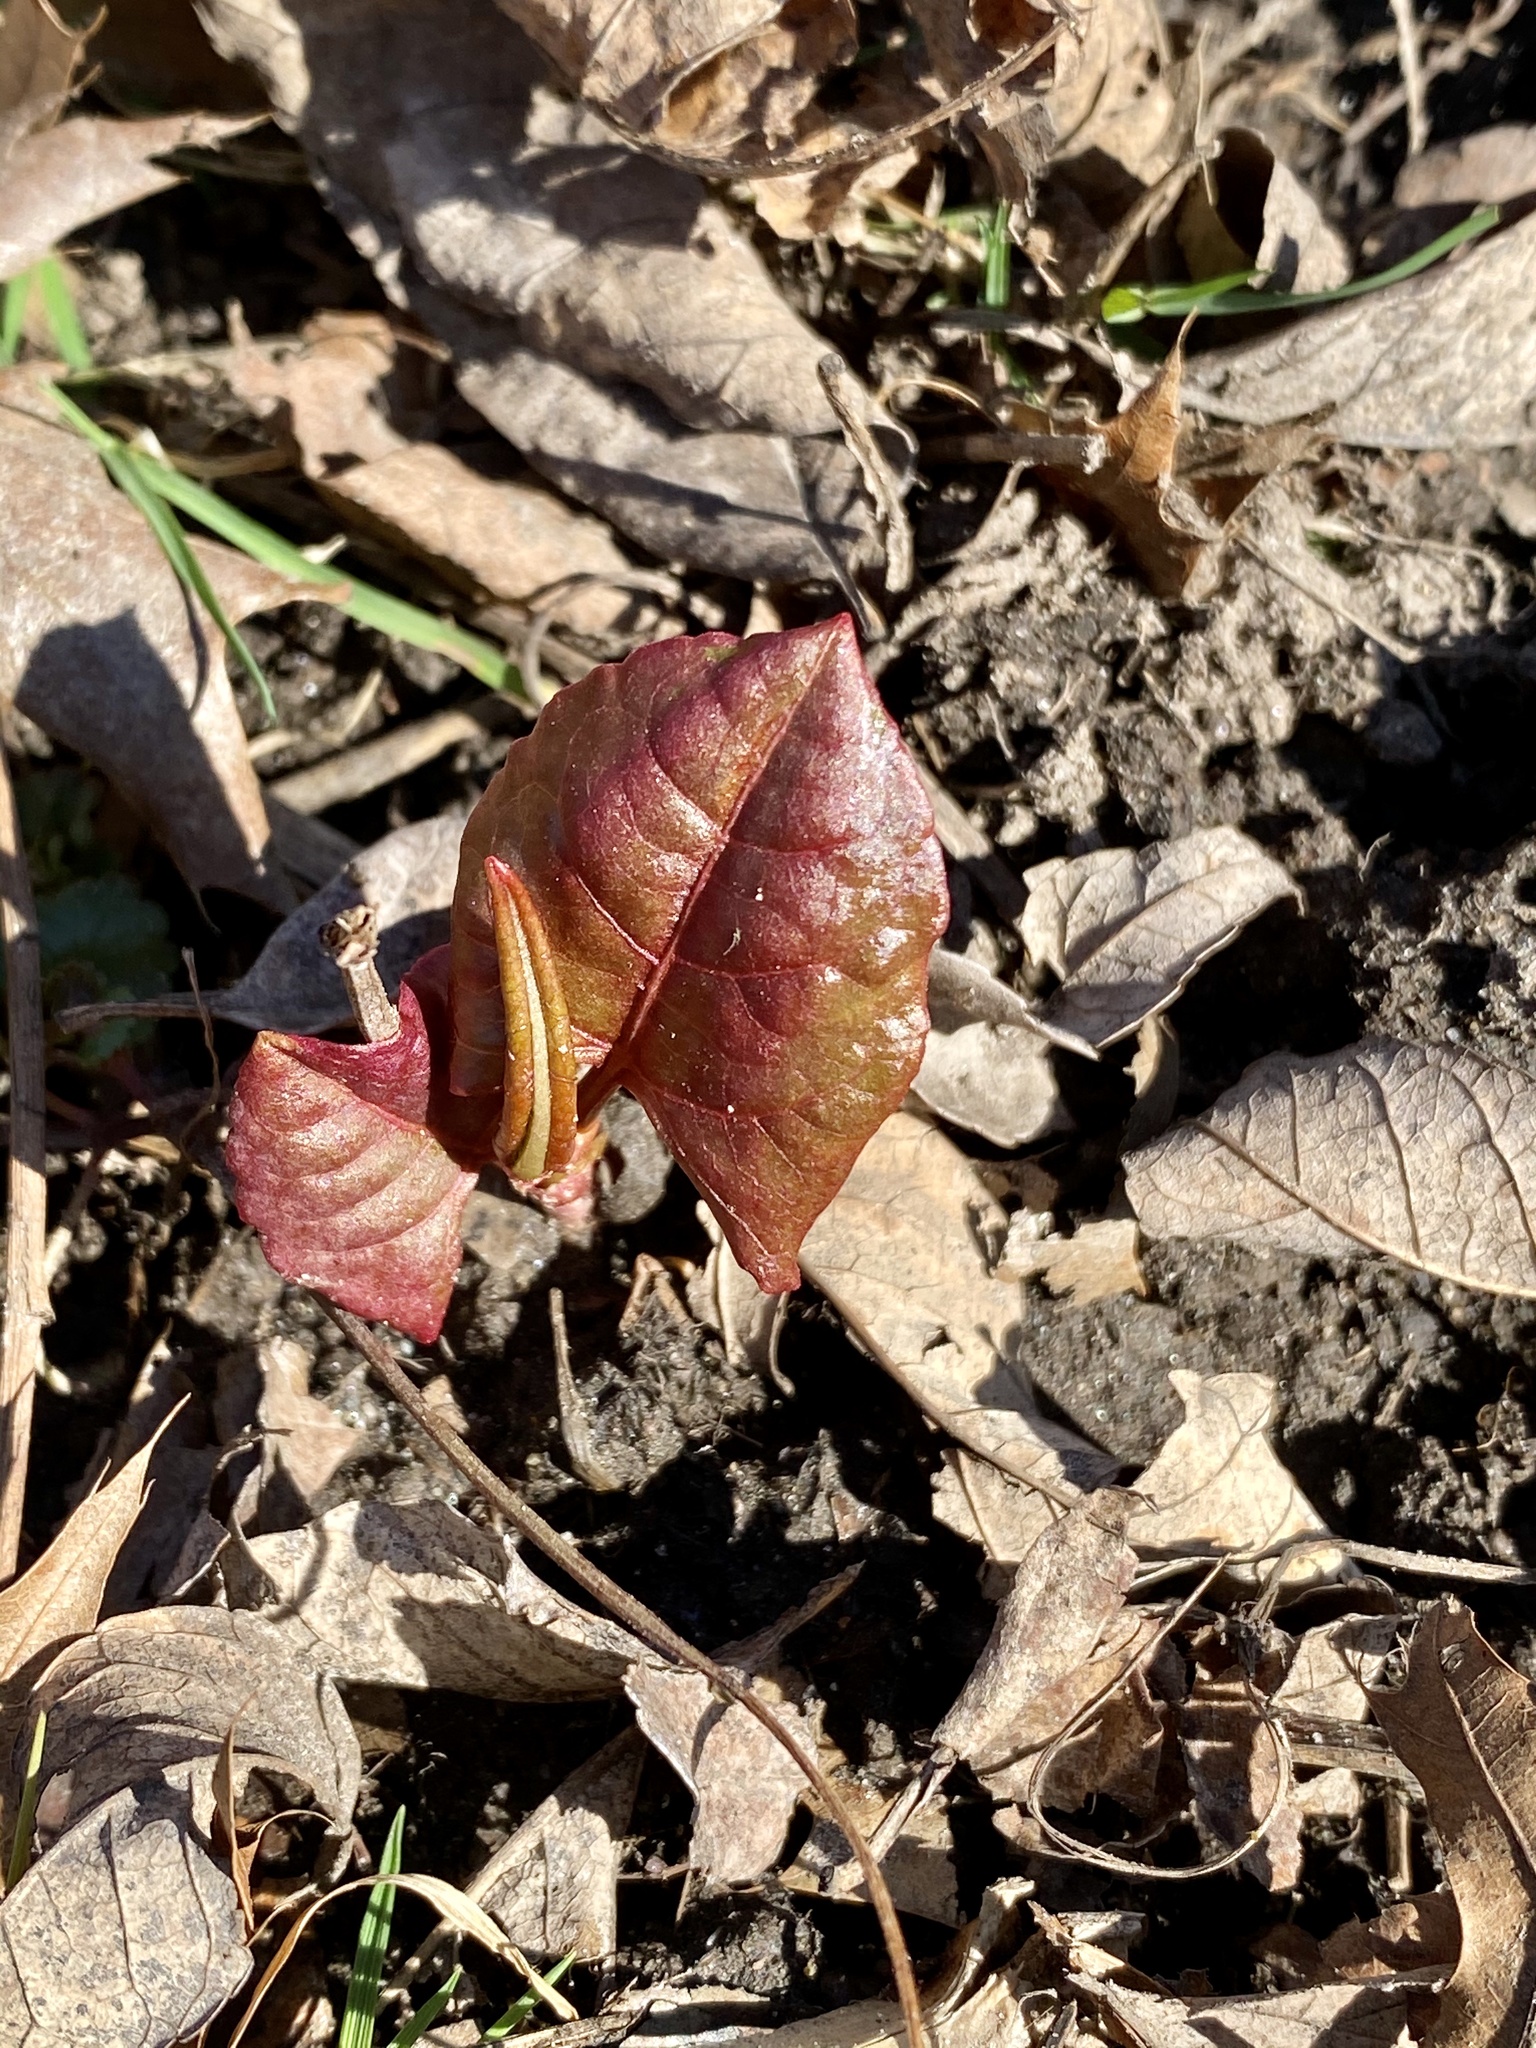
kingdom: Plantae
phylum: Tracheophyta
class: Magnoliopsida
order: Caryophyllales
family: Polygonaceae
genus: Reynoutria
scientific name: Reynoutria japonica
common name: Japanese knotweed
